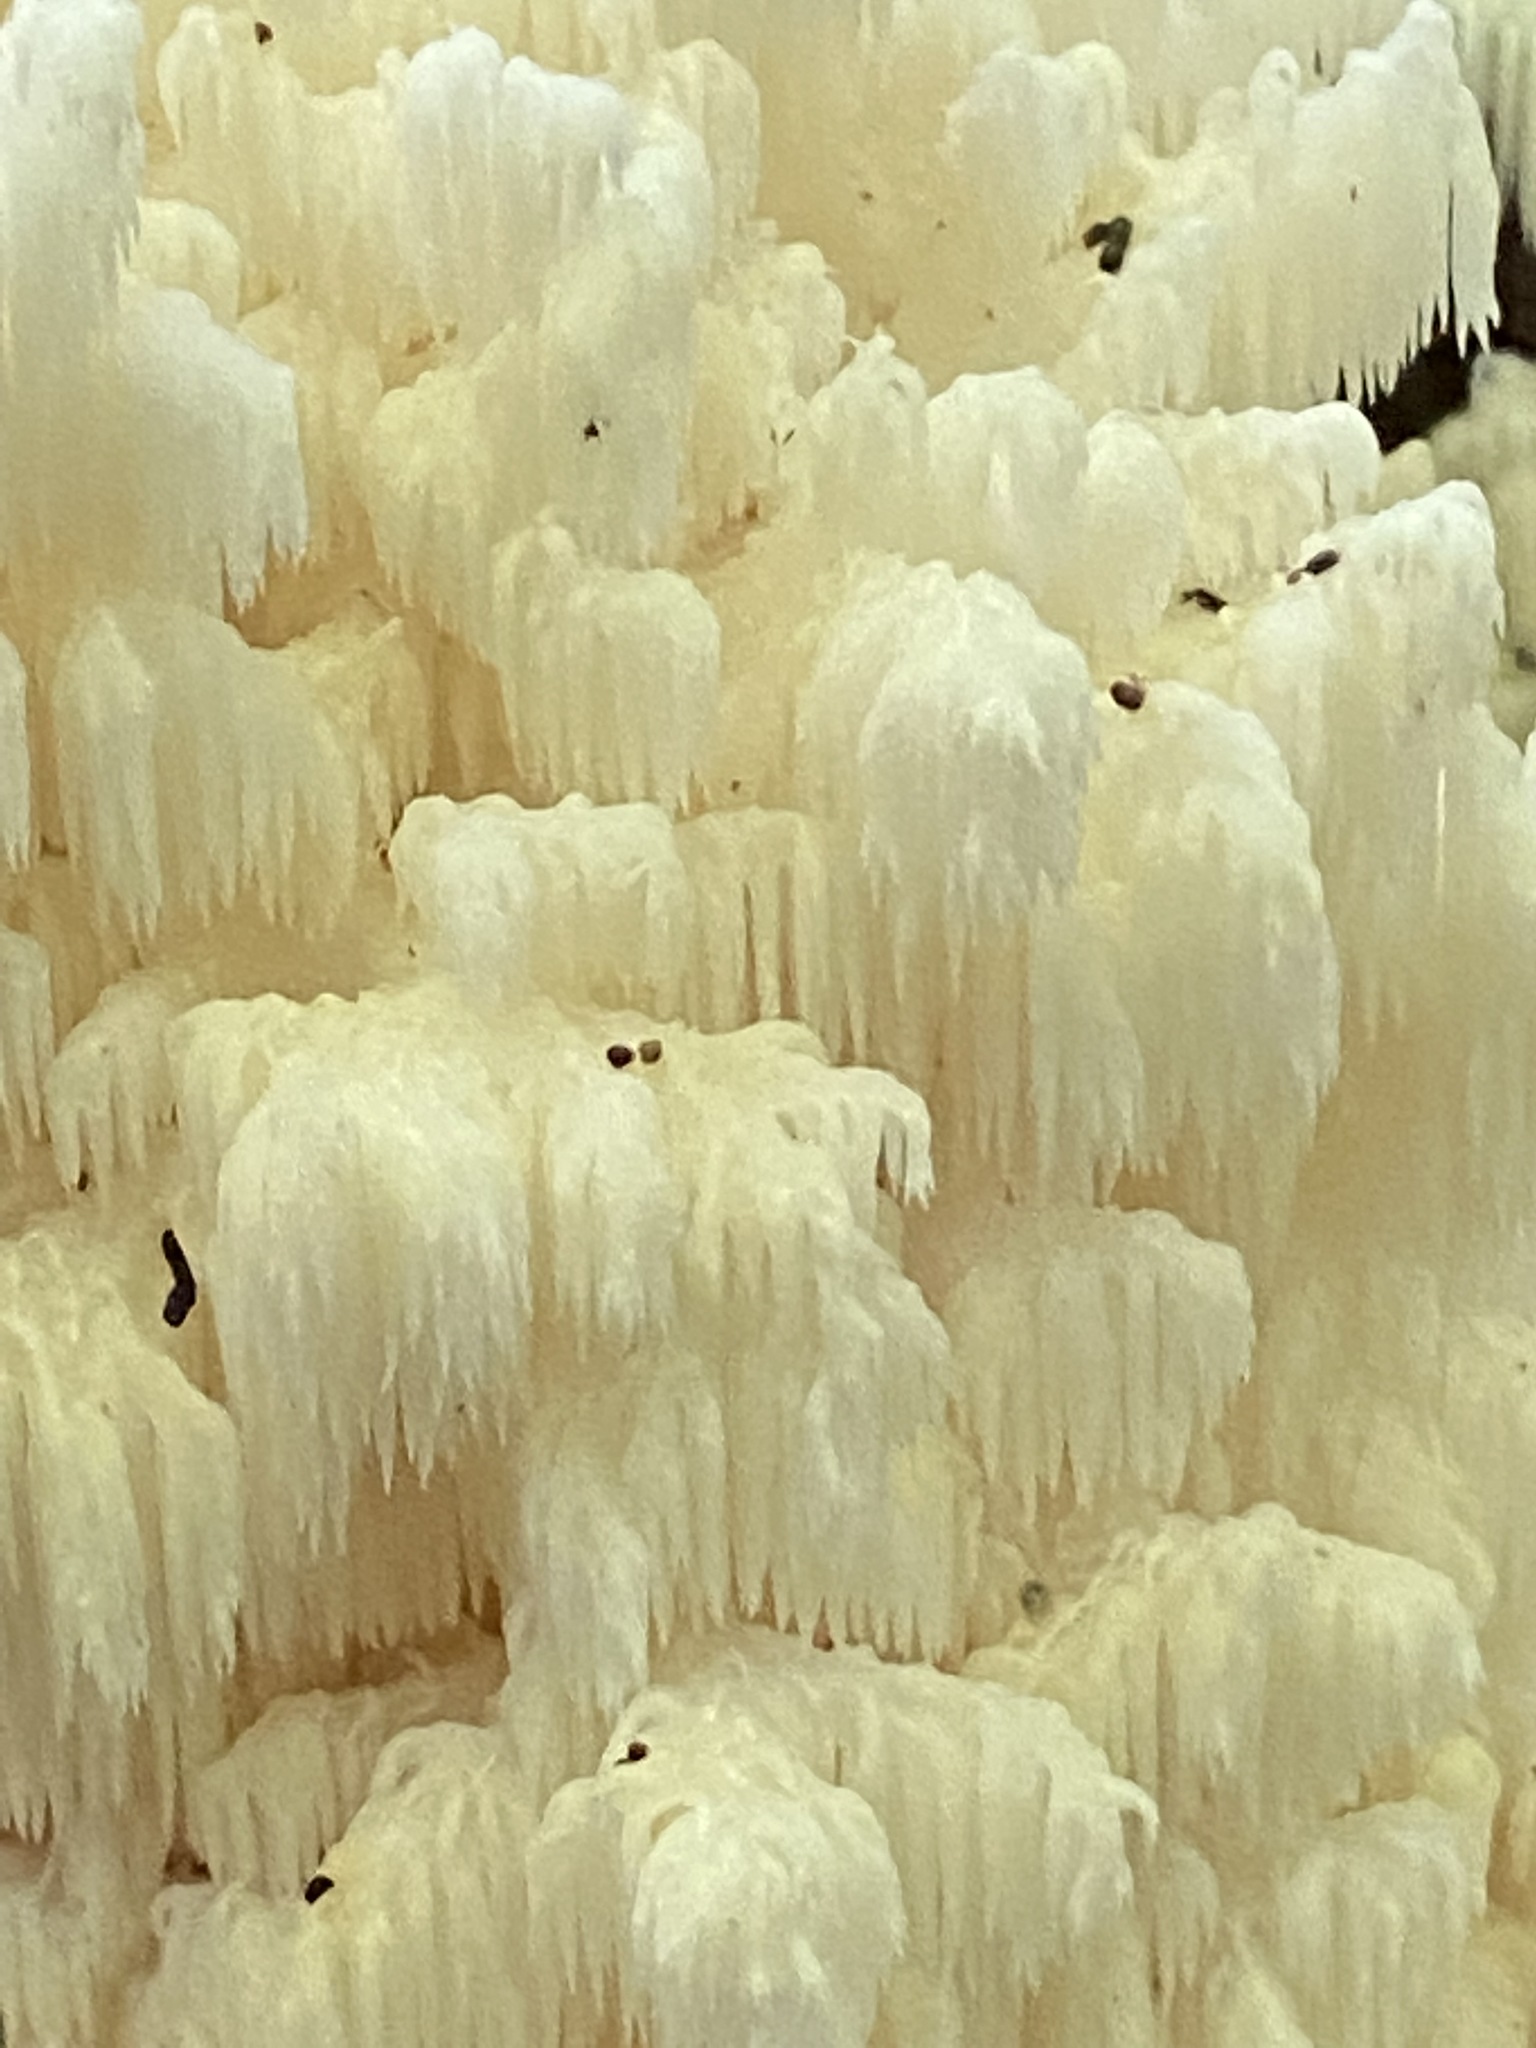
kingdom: Fungi
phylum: Basidiomycota
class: Agaricomycetes
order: Russulales
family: Hericiaceae
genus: Hericium
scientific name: Hericium coralloides
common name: Coral tooth
